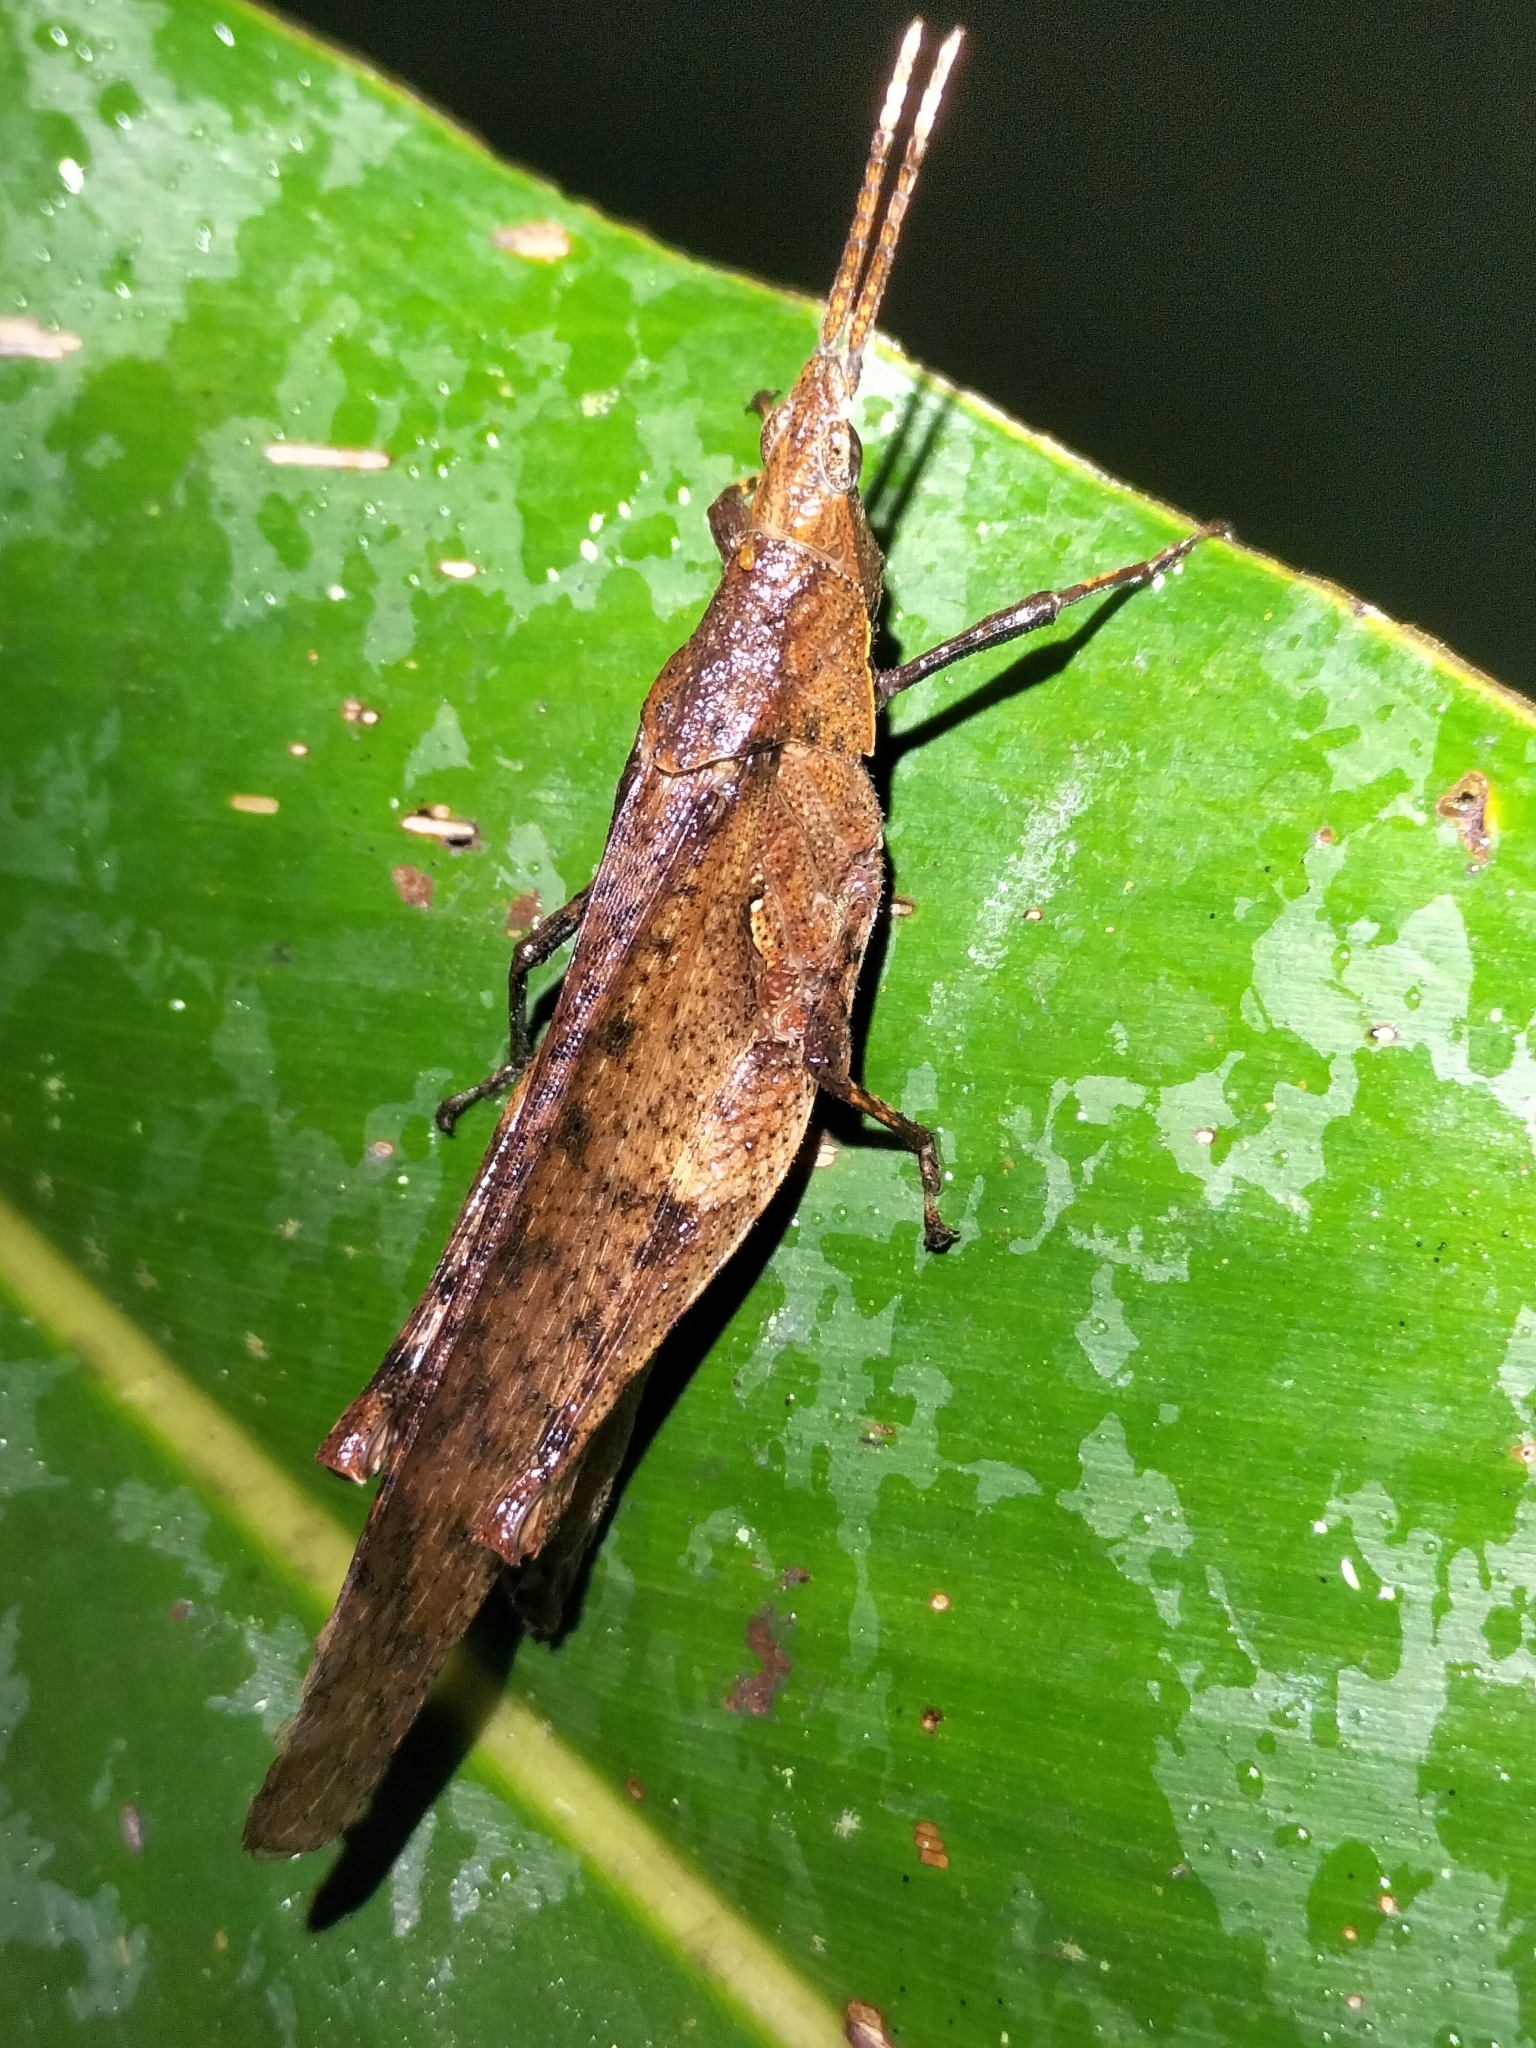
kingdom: Animalia
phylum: Arthropoda
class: Insecta
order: Orthoptera
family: Pyrgomorphidae
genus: Desmoptera
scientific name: Desmoptera truncatipennis
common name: Large forest pyrgomorph
